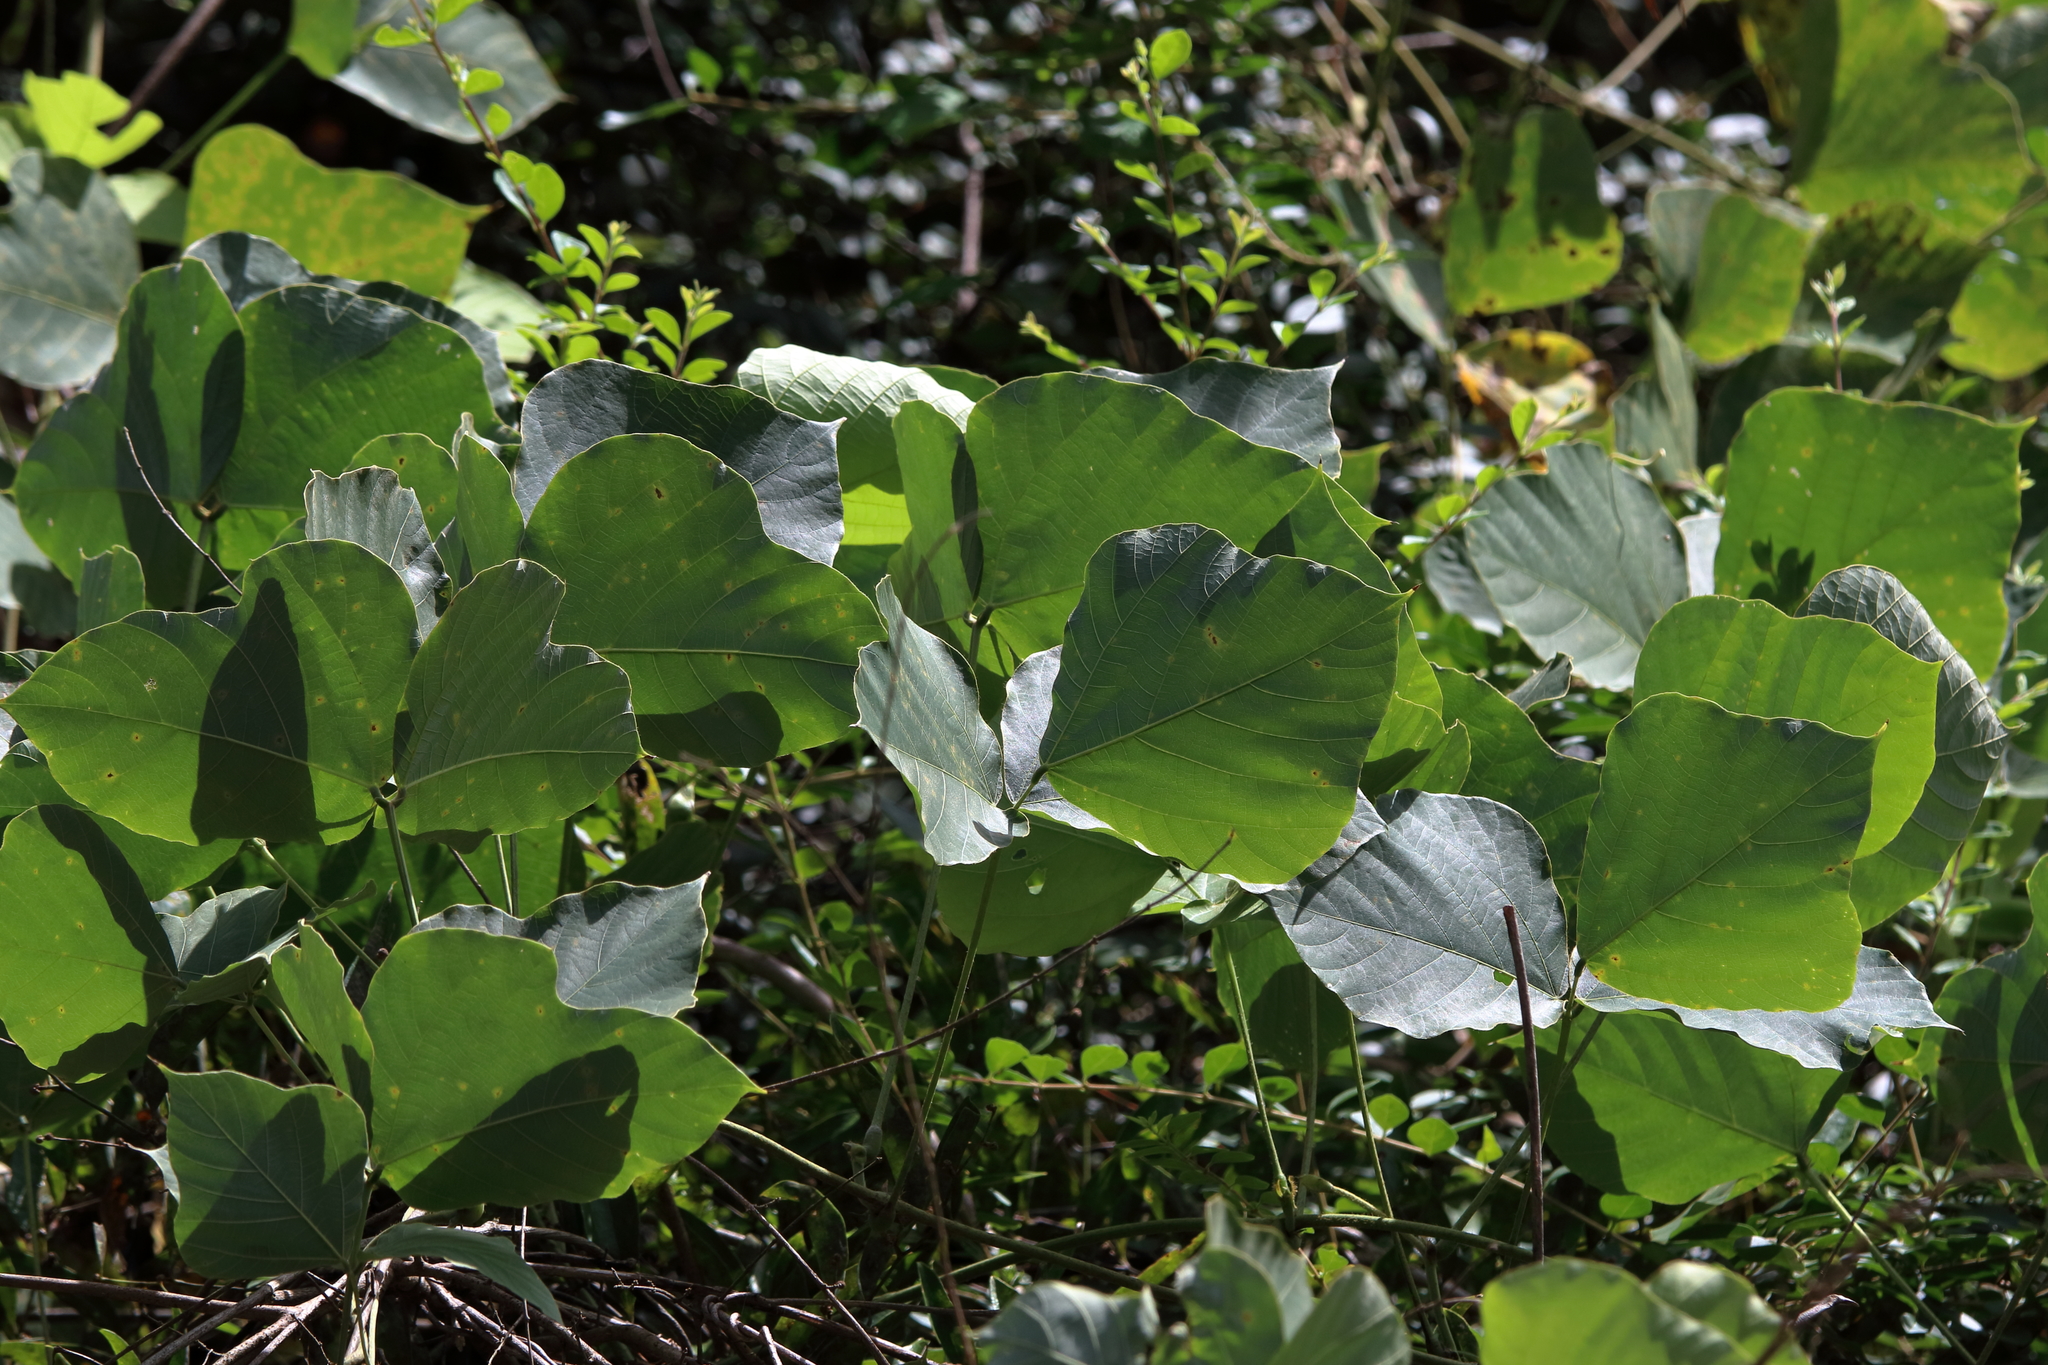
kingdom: Plantae
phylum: Tracheophyta
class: Magnoliopsida
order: Fabales
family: Fabaceae
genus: Pueraria
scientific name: Pueraria montana
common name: Kudzu
